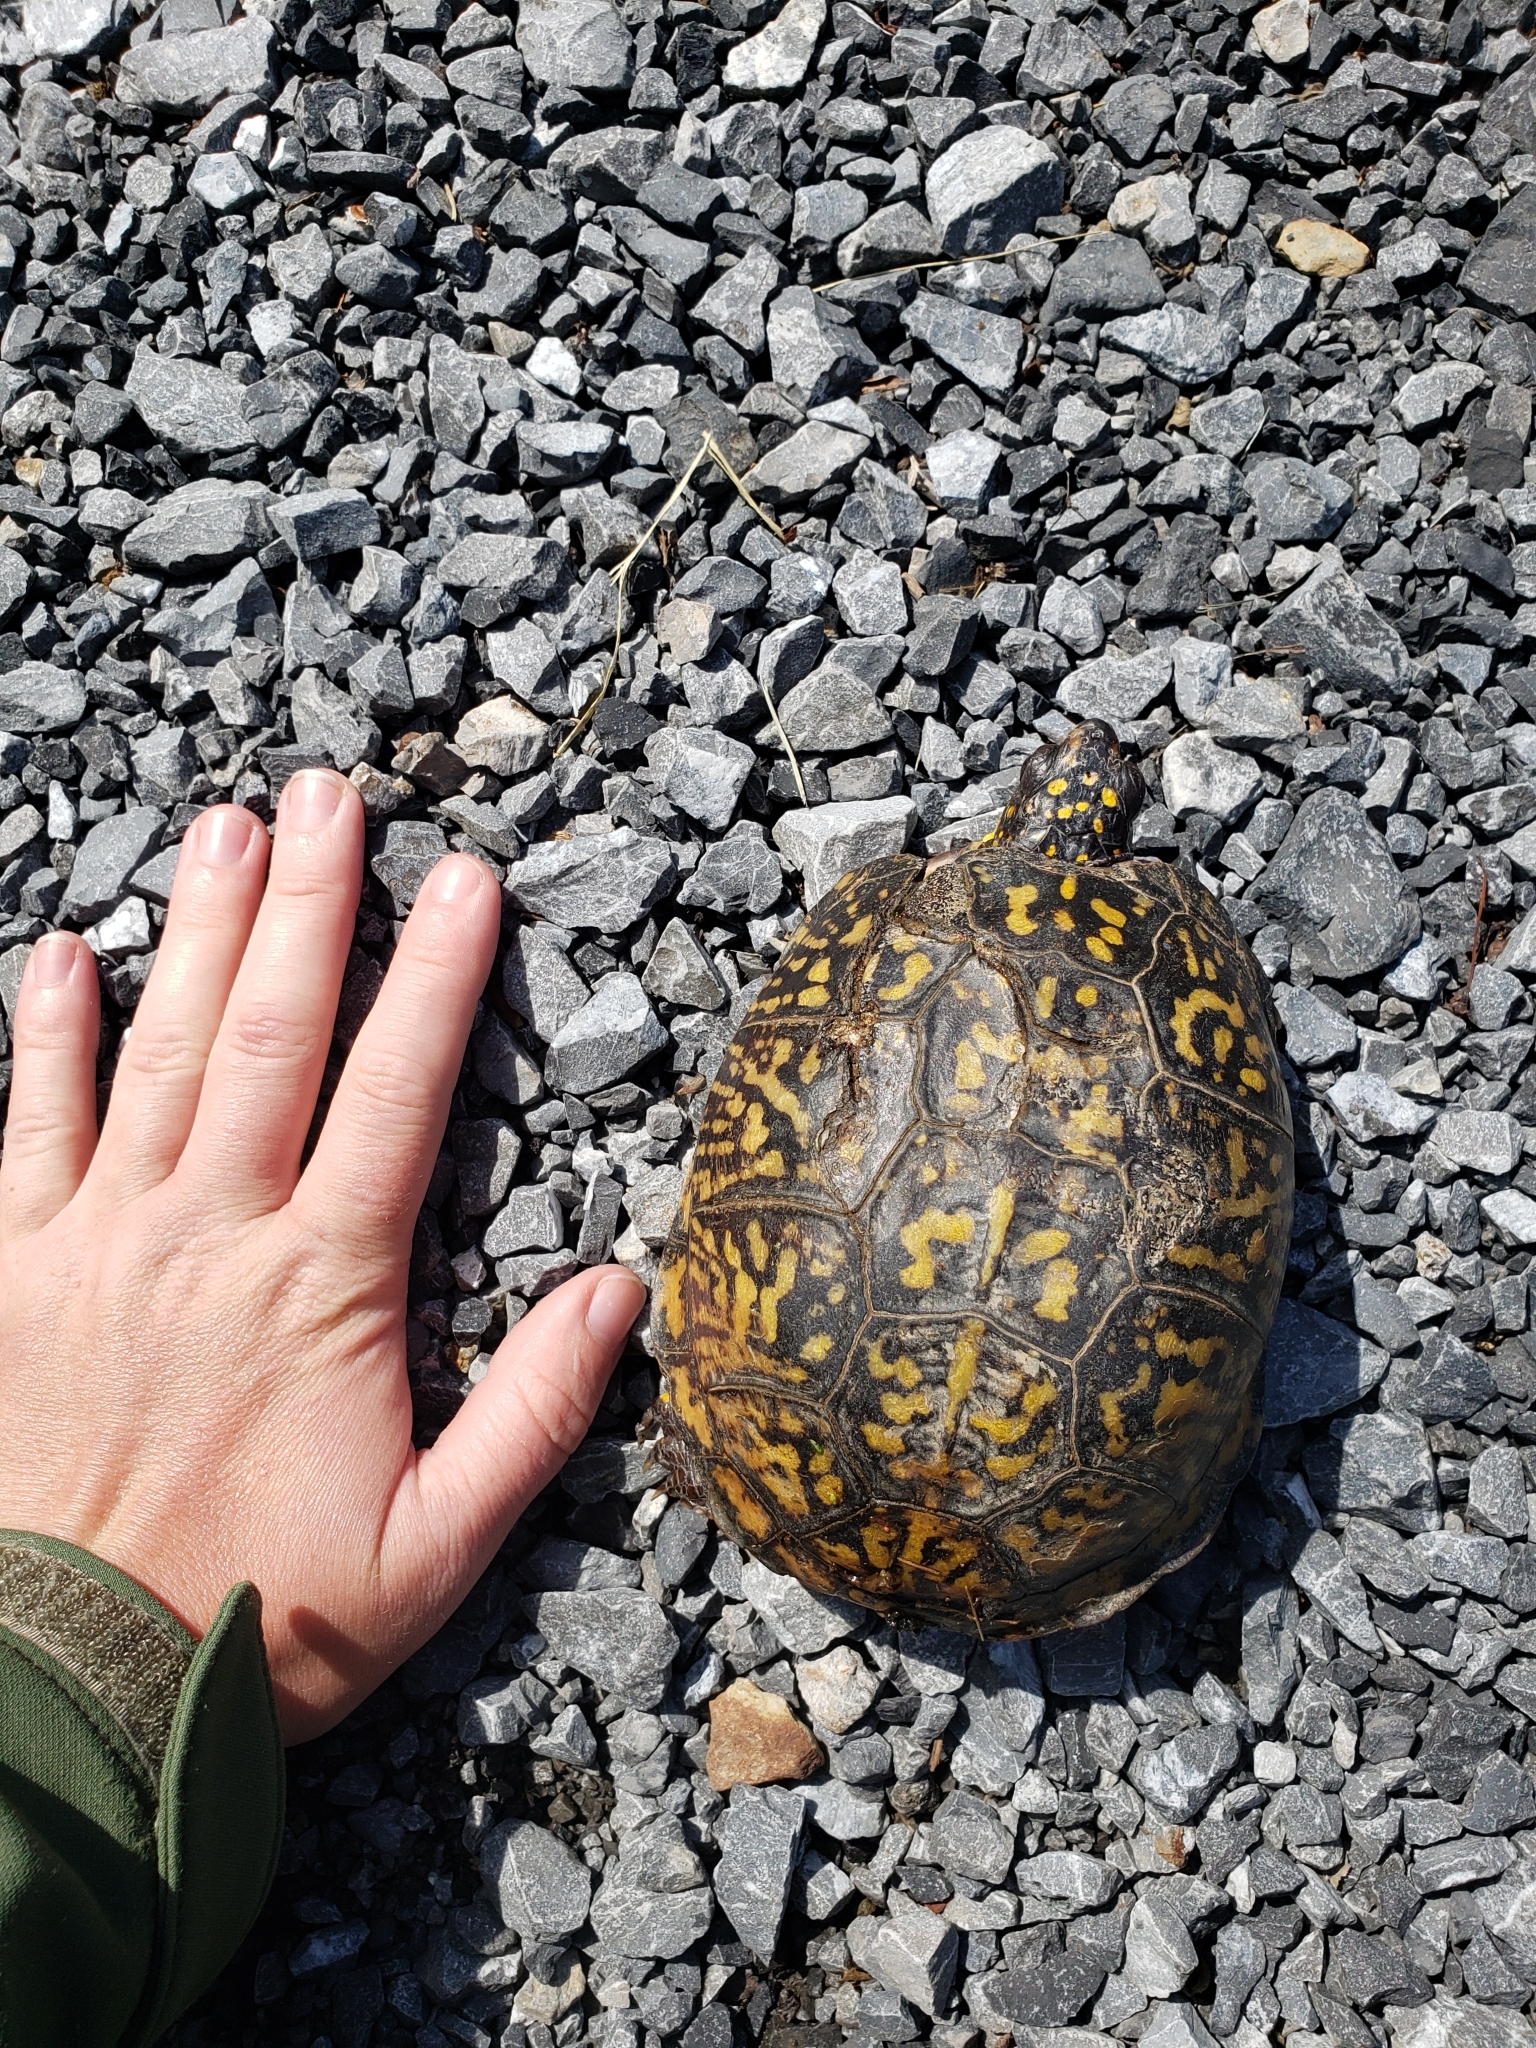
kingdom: Animalia
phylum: Chordata
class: Testudines
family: Emydidae
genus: Terrapene
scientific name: Terrapene carolina
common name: Common box turtle
